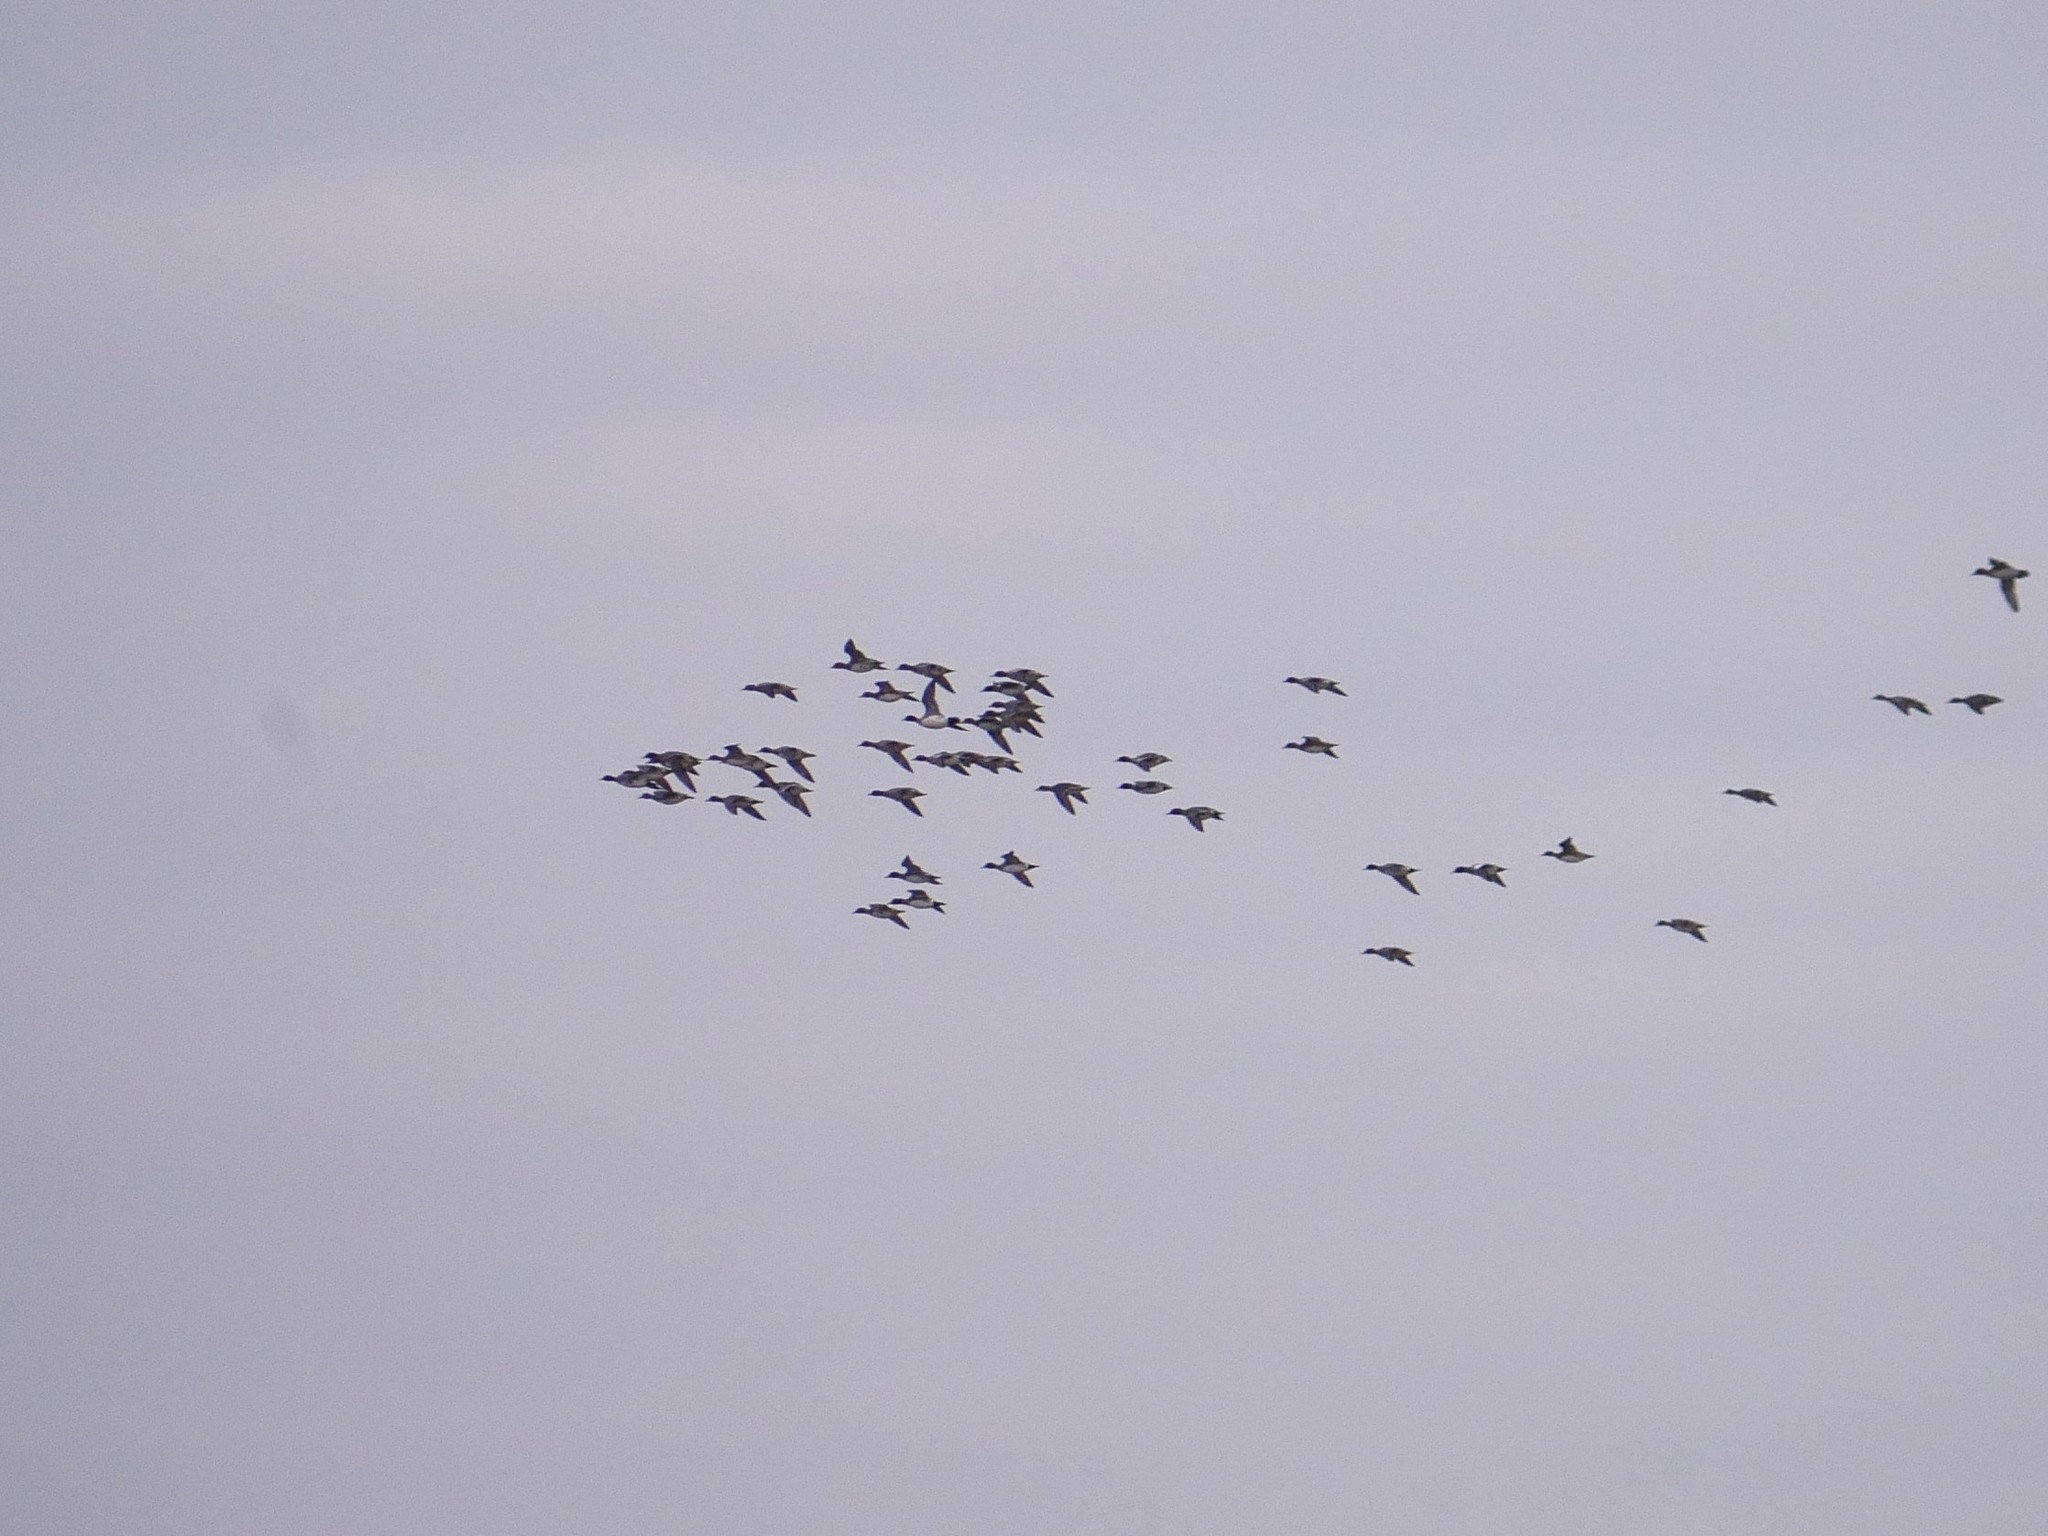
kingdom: Animalia
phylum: Chordata
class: Aves
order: Anseriformes
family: Anatidae
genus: Mareca
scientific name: Mareca penelope
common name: Eurasian wigeon
